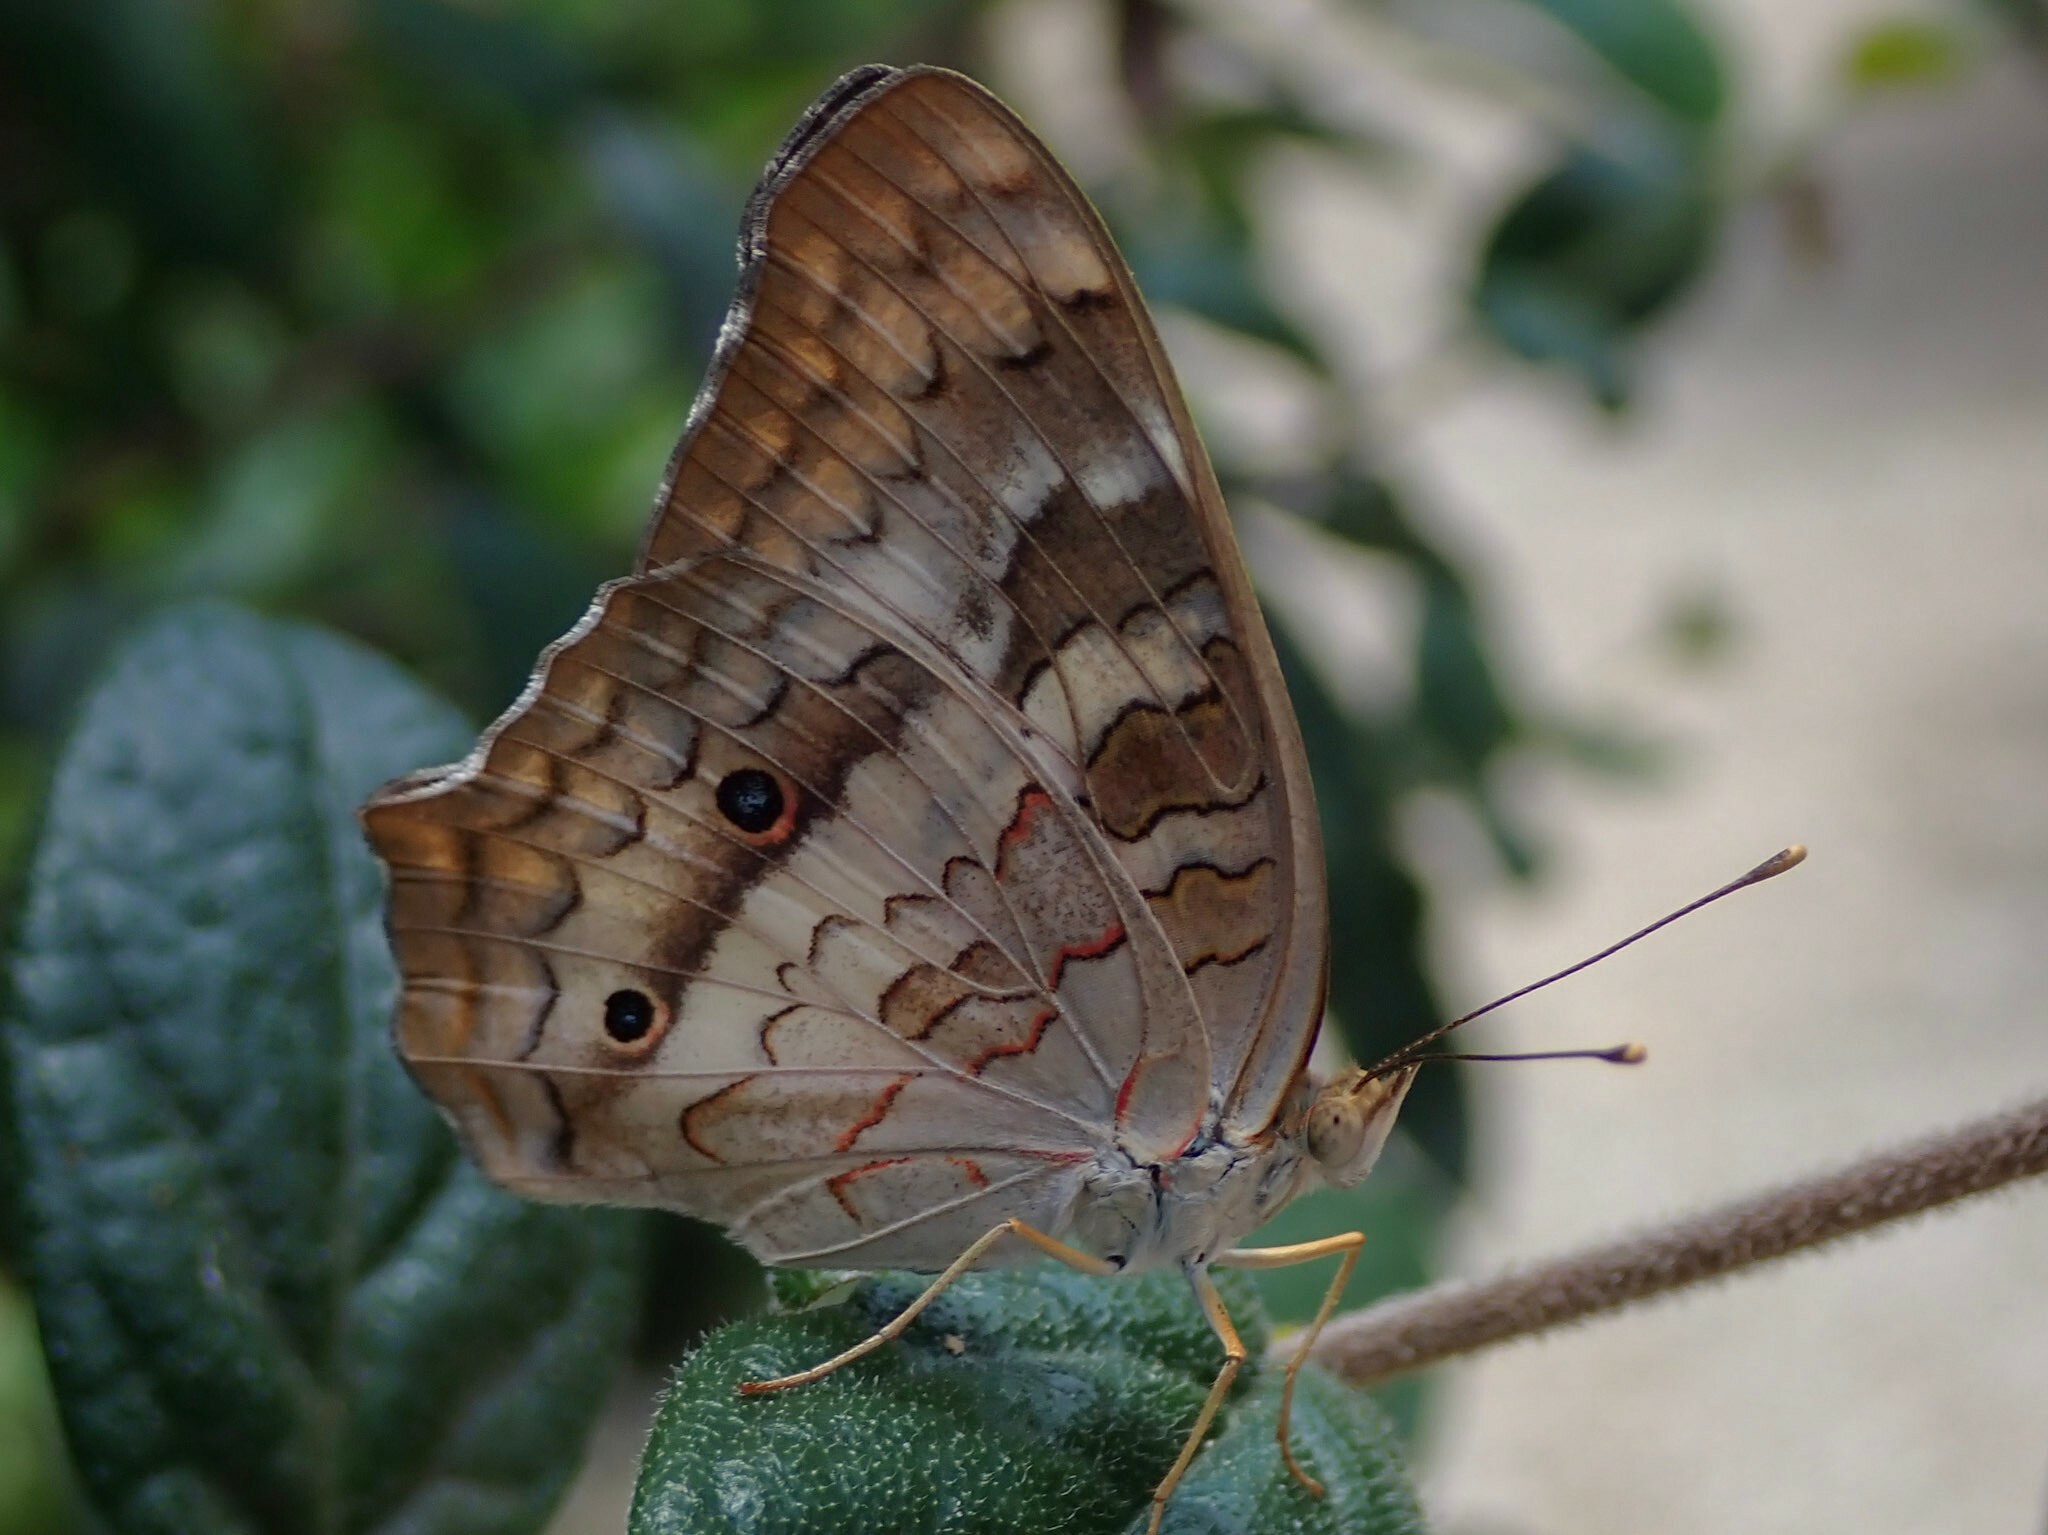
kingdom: Animalia
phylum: Arthropoda
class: Insecta
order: Lepidoptera
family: Nymphalidae
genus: Anartia
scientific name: Anartia jatrophae
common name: White peacock
